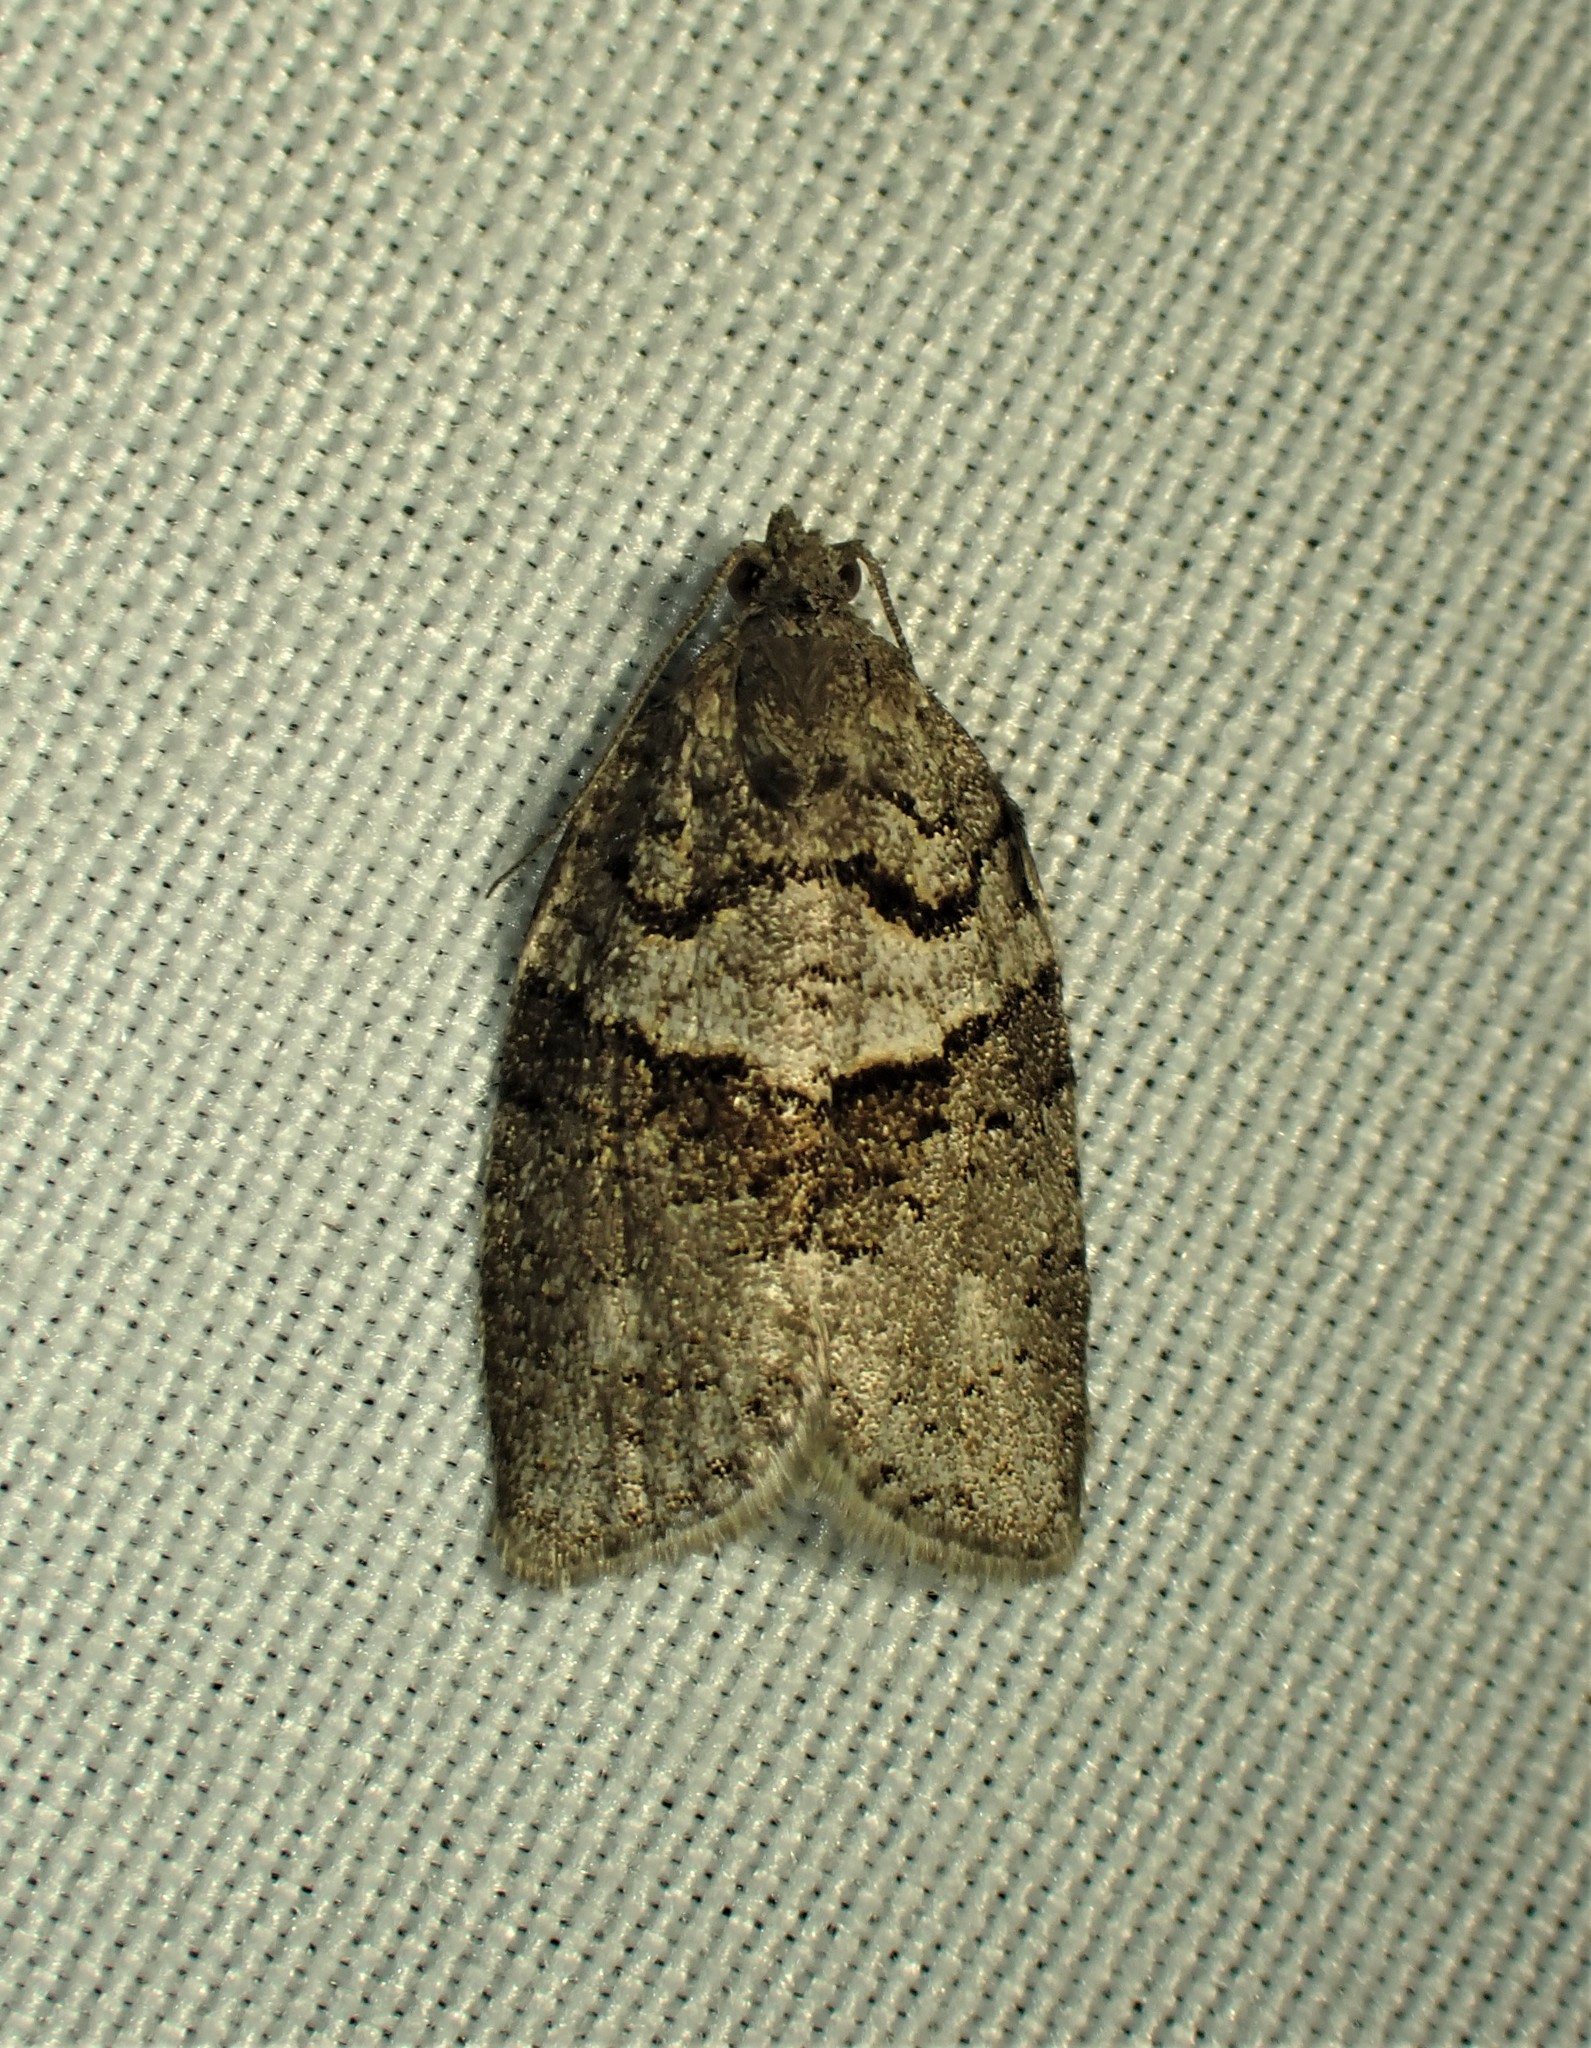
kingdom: Animalia
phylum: Arthropoda
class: Insecta
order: Lepidoptera
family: Tortricidae
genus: Syndemis
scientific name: Syndemis afflictana
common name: Gray leafroller moth
